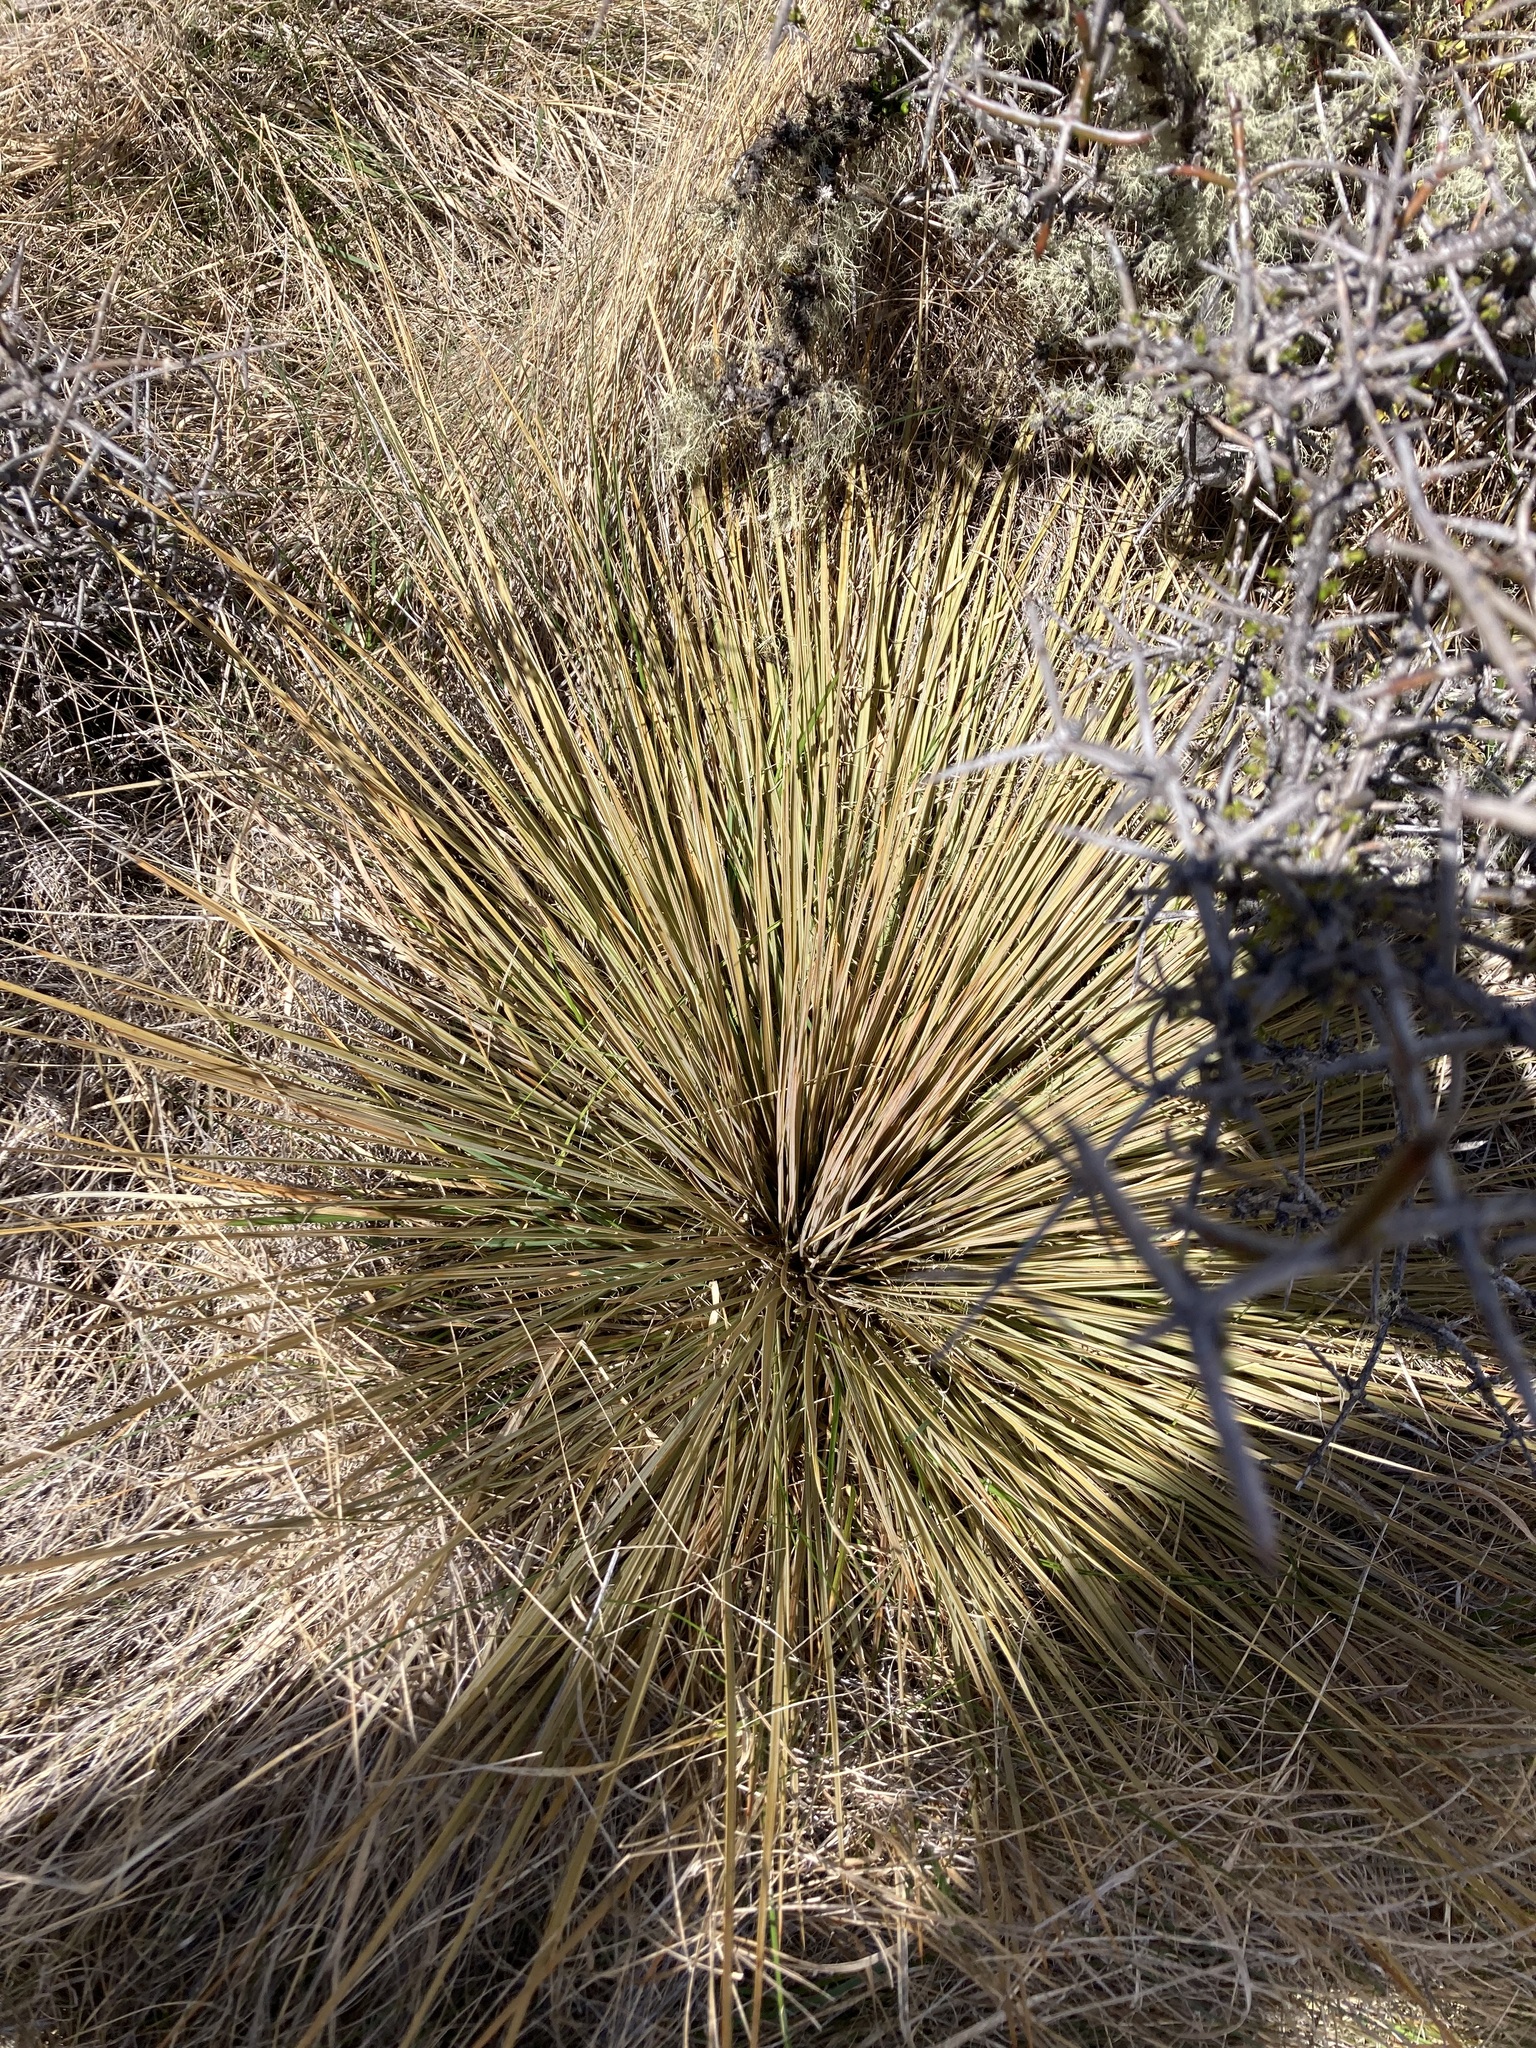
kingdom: Plantae
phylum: Tracheophyta
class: Magnoliopsida
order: Apiales
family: Apiaceae
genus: Aciphylla
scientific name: Aciphylla subflabellata
